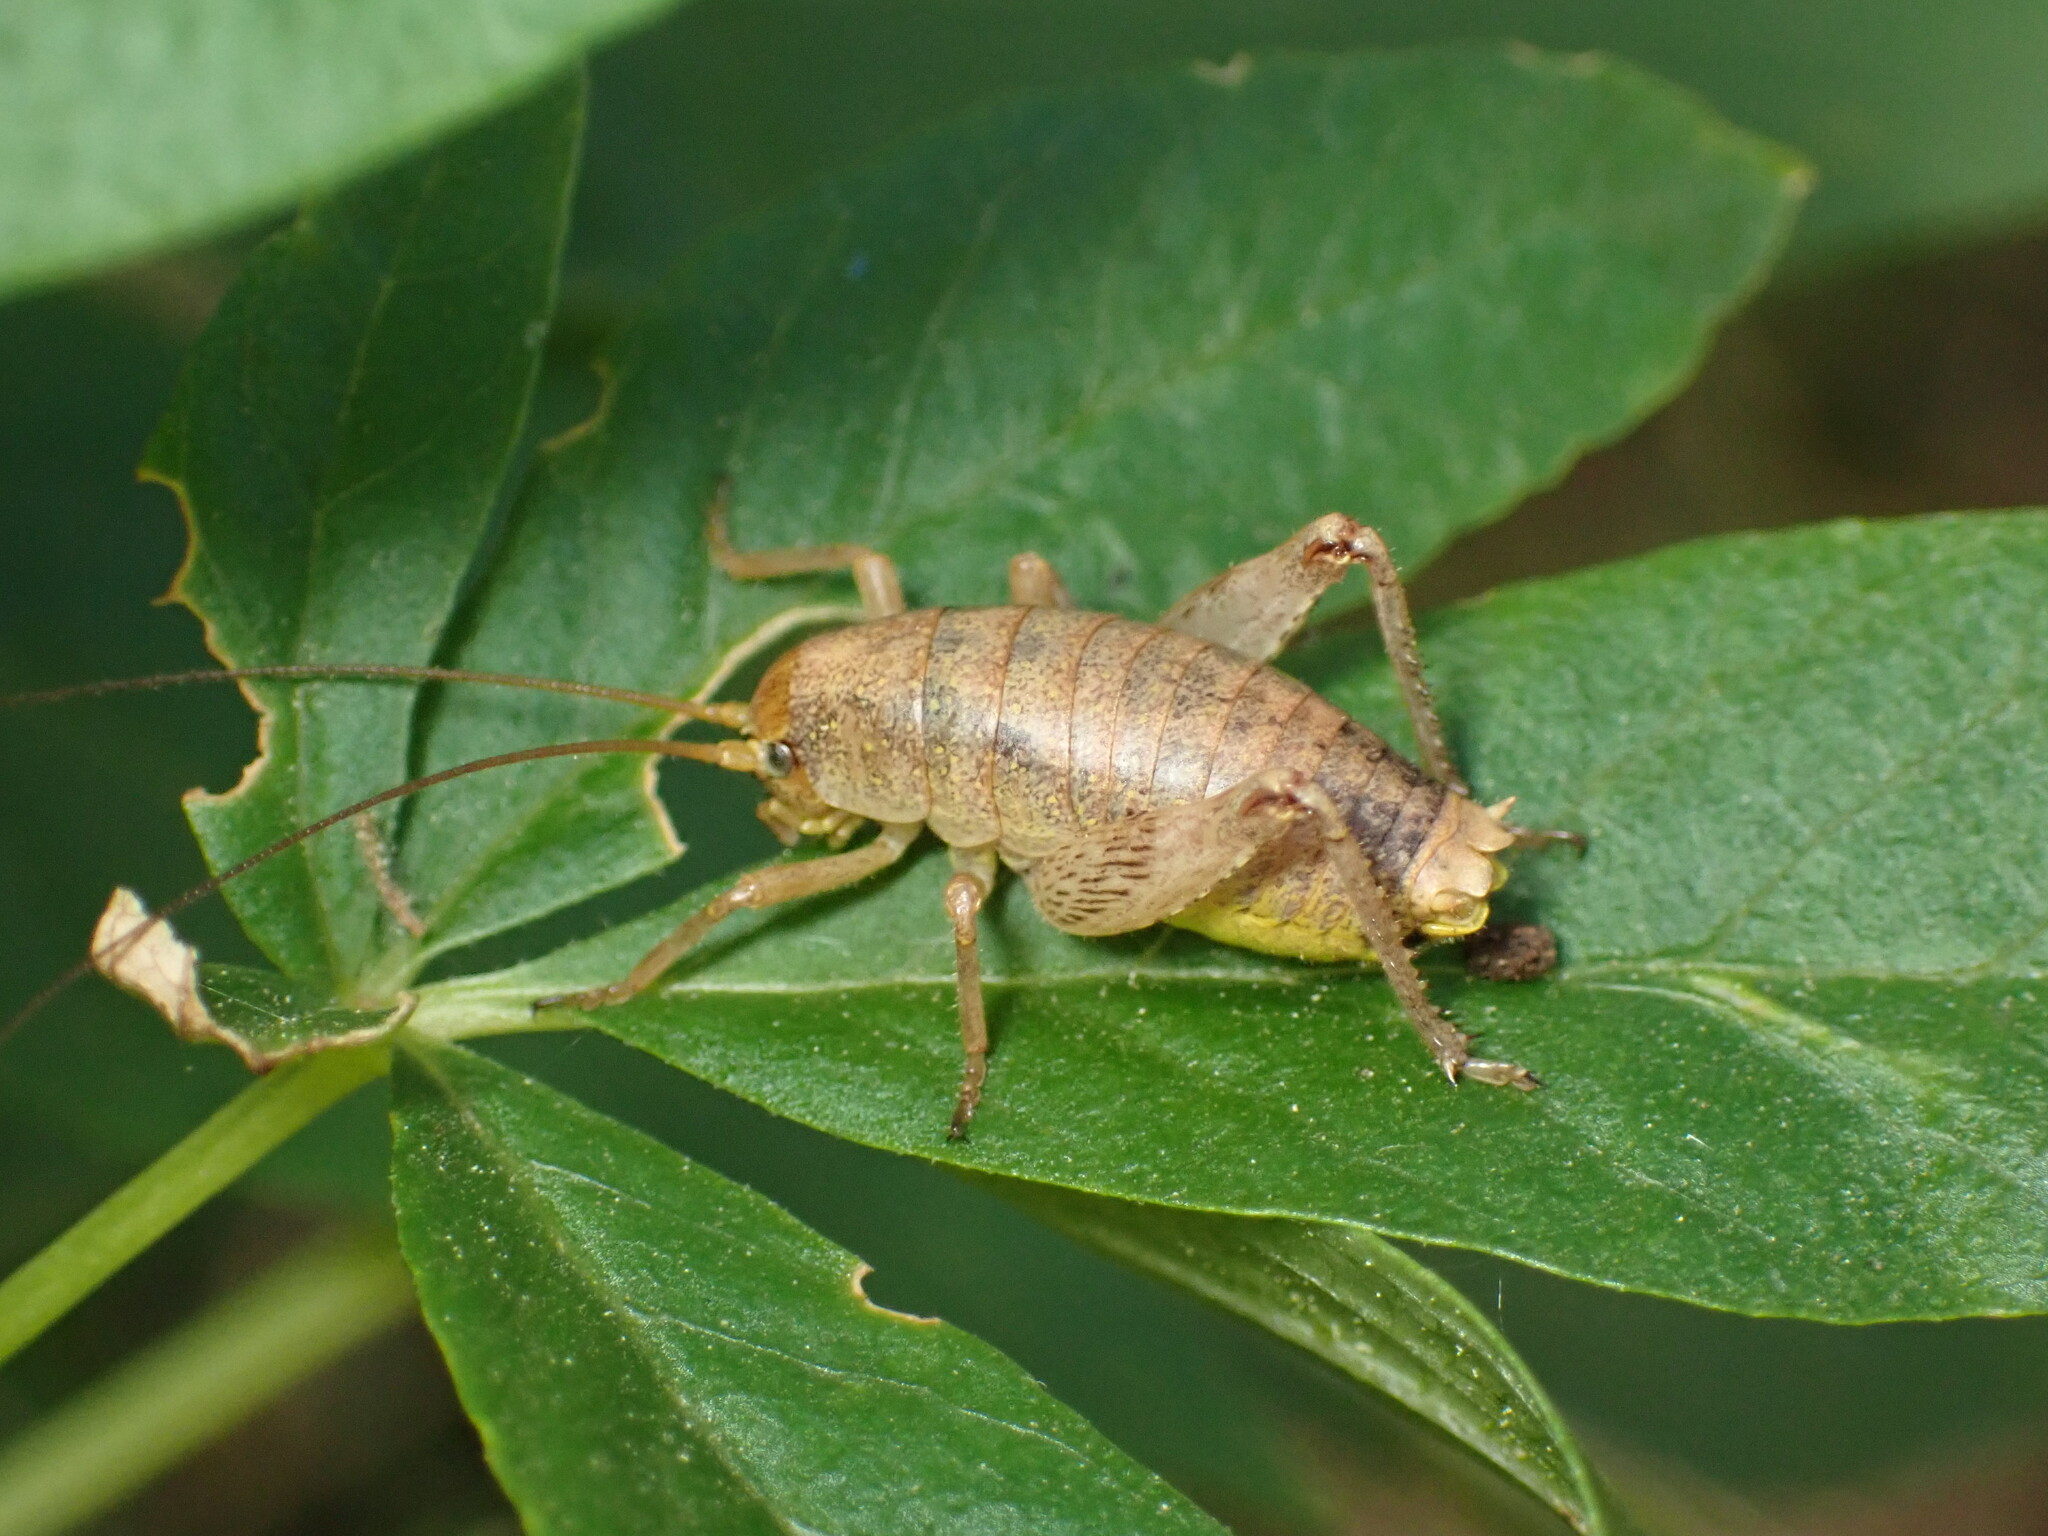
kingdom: Animalia
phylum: Arthropoda
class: Insecta
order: Orthoptera
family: Rhaphidophoridae
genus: Gammarotettix
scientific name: Gammarotettix bilobatus
